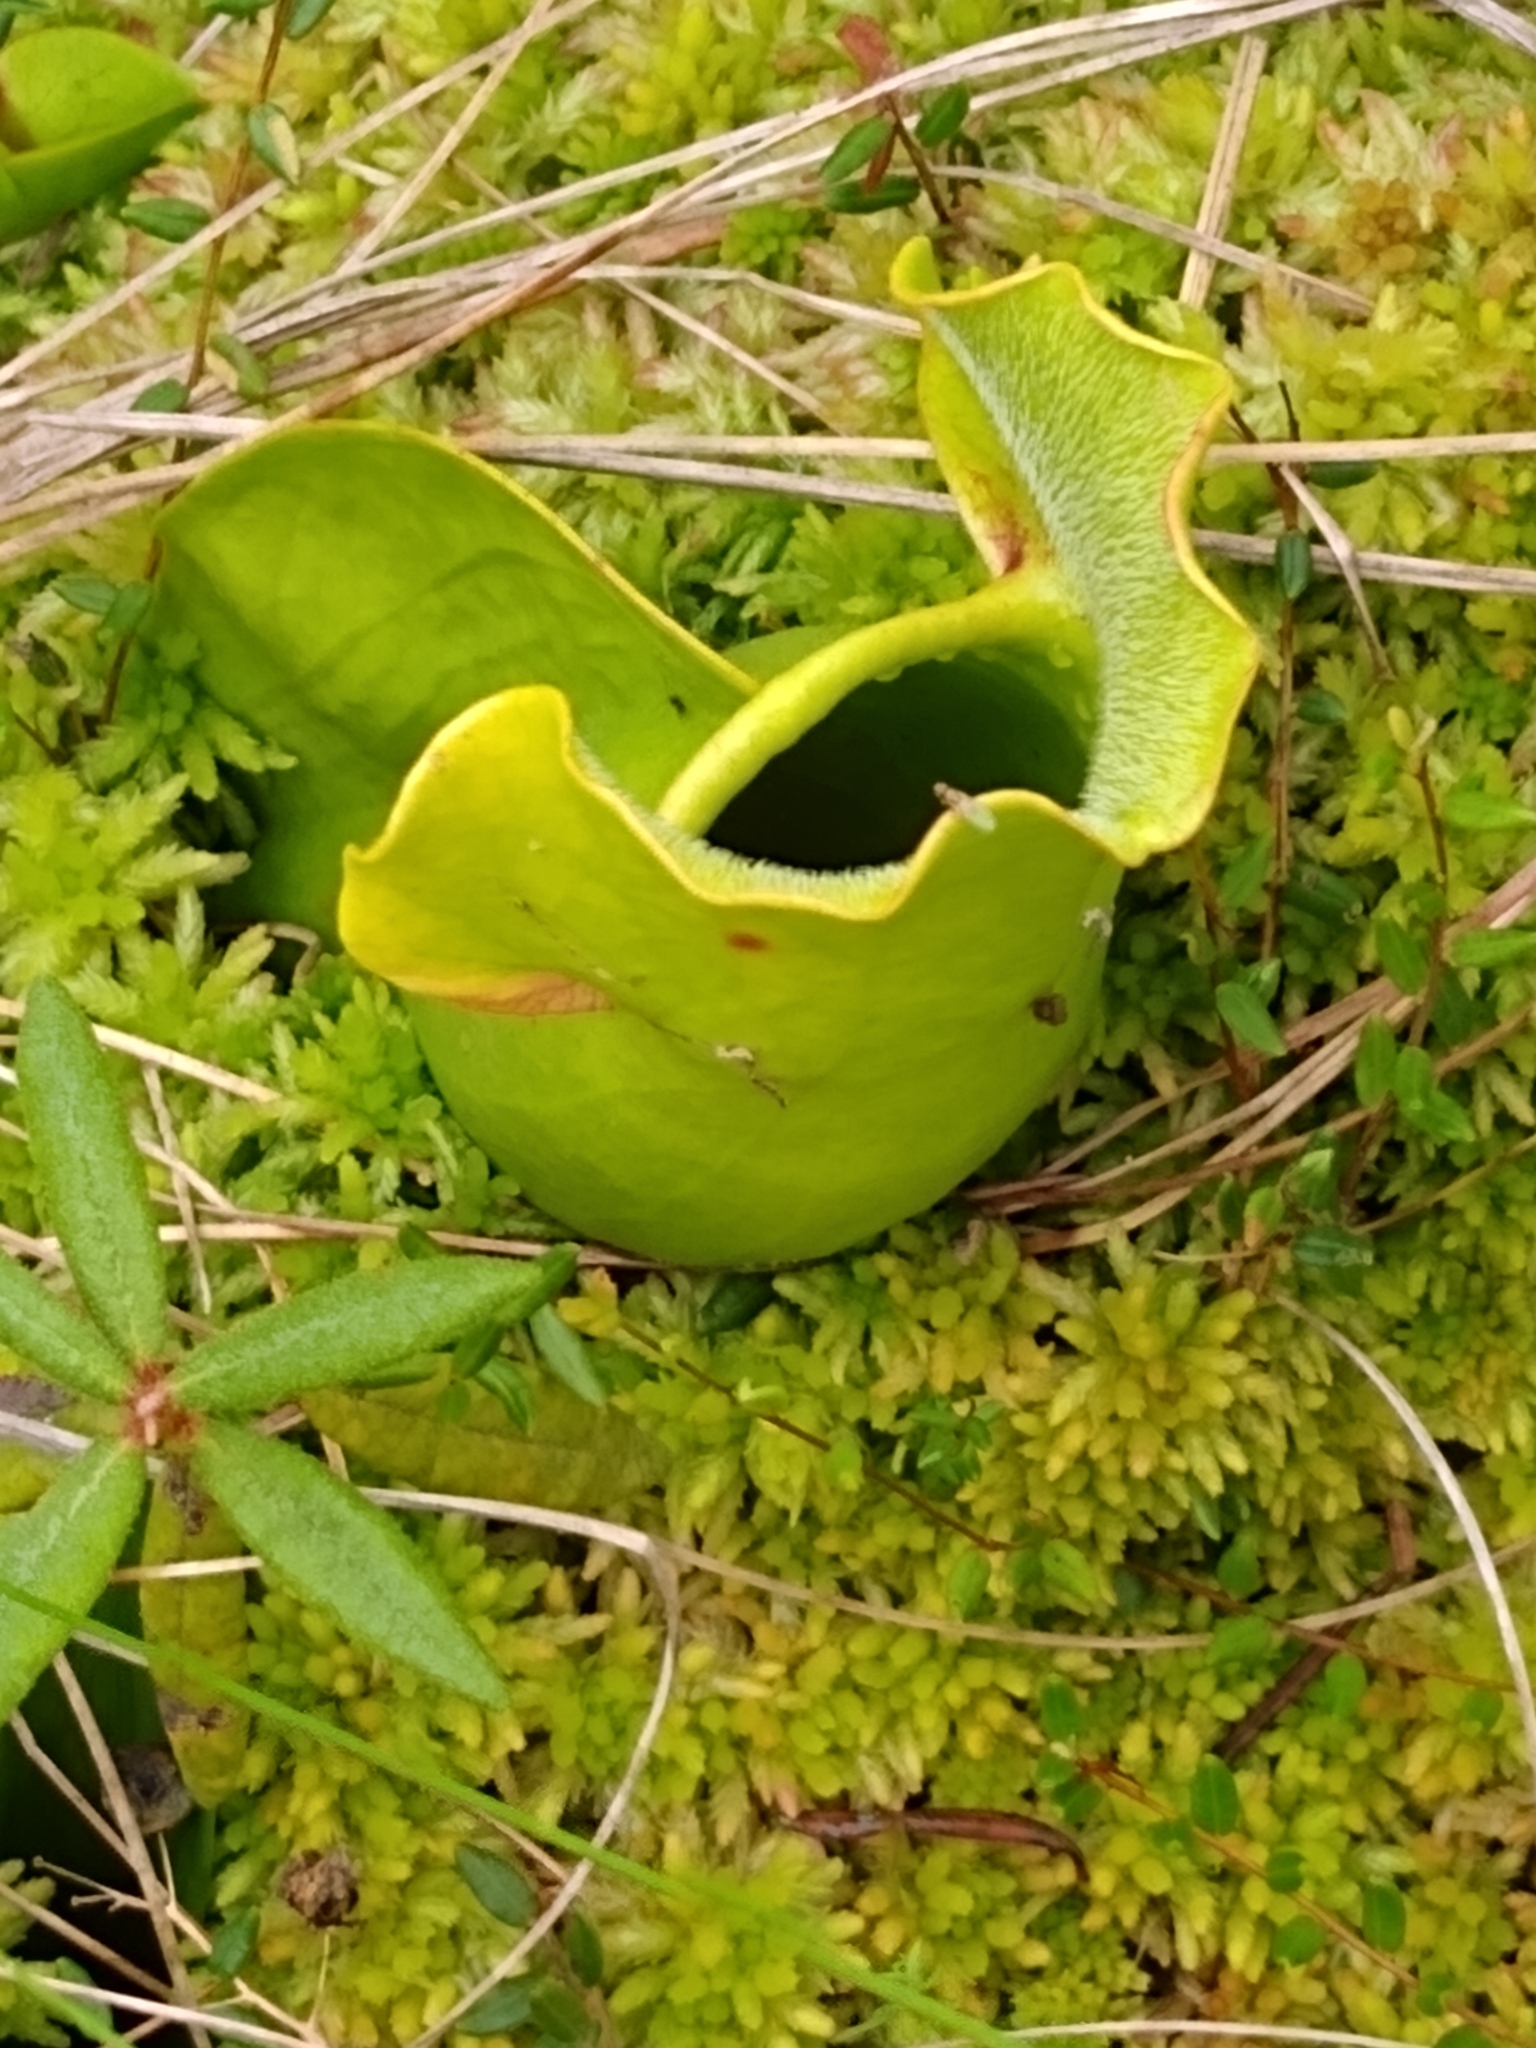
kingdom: Plantae
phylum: Tracheophyta
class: Magnoliopsida
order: Ericales
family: Sarraceniaceae
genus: Sarracenia
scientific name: Sarracenia purpurea
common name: Pitcherplant
